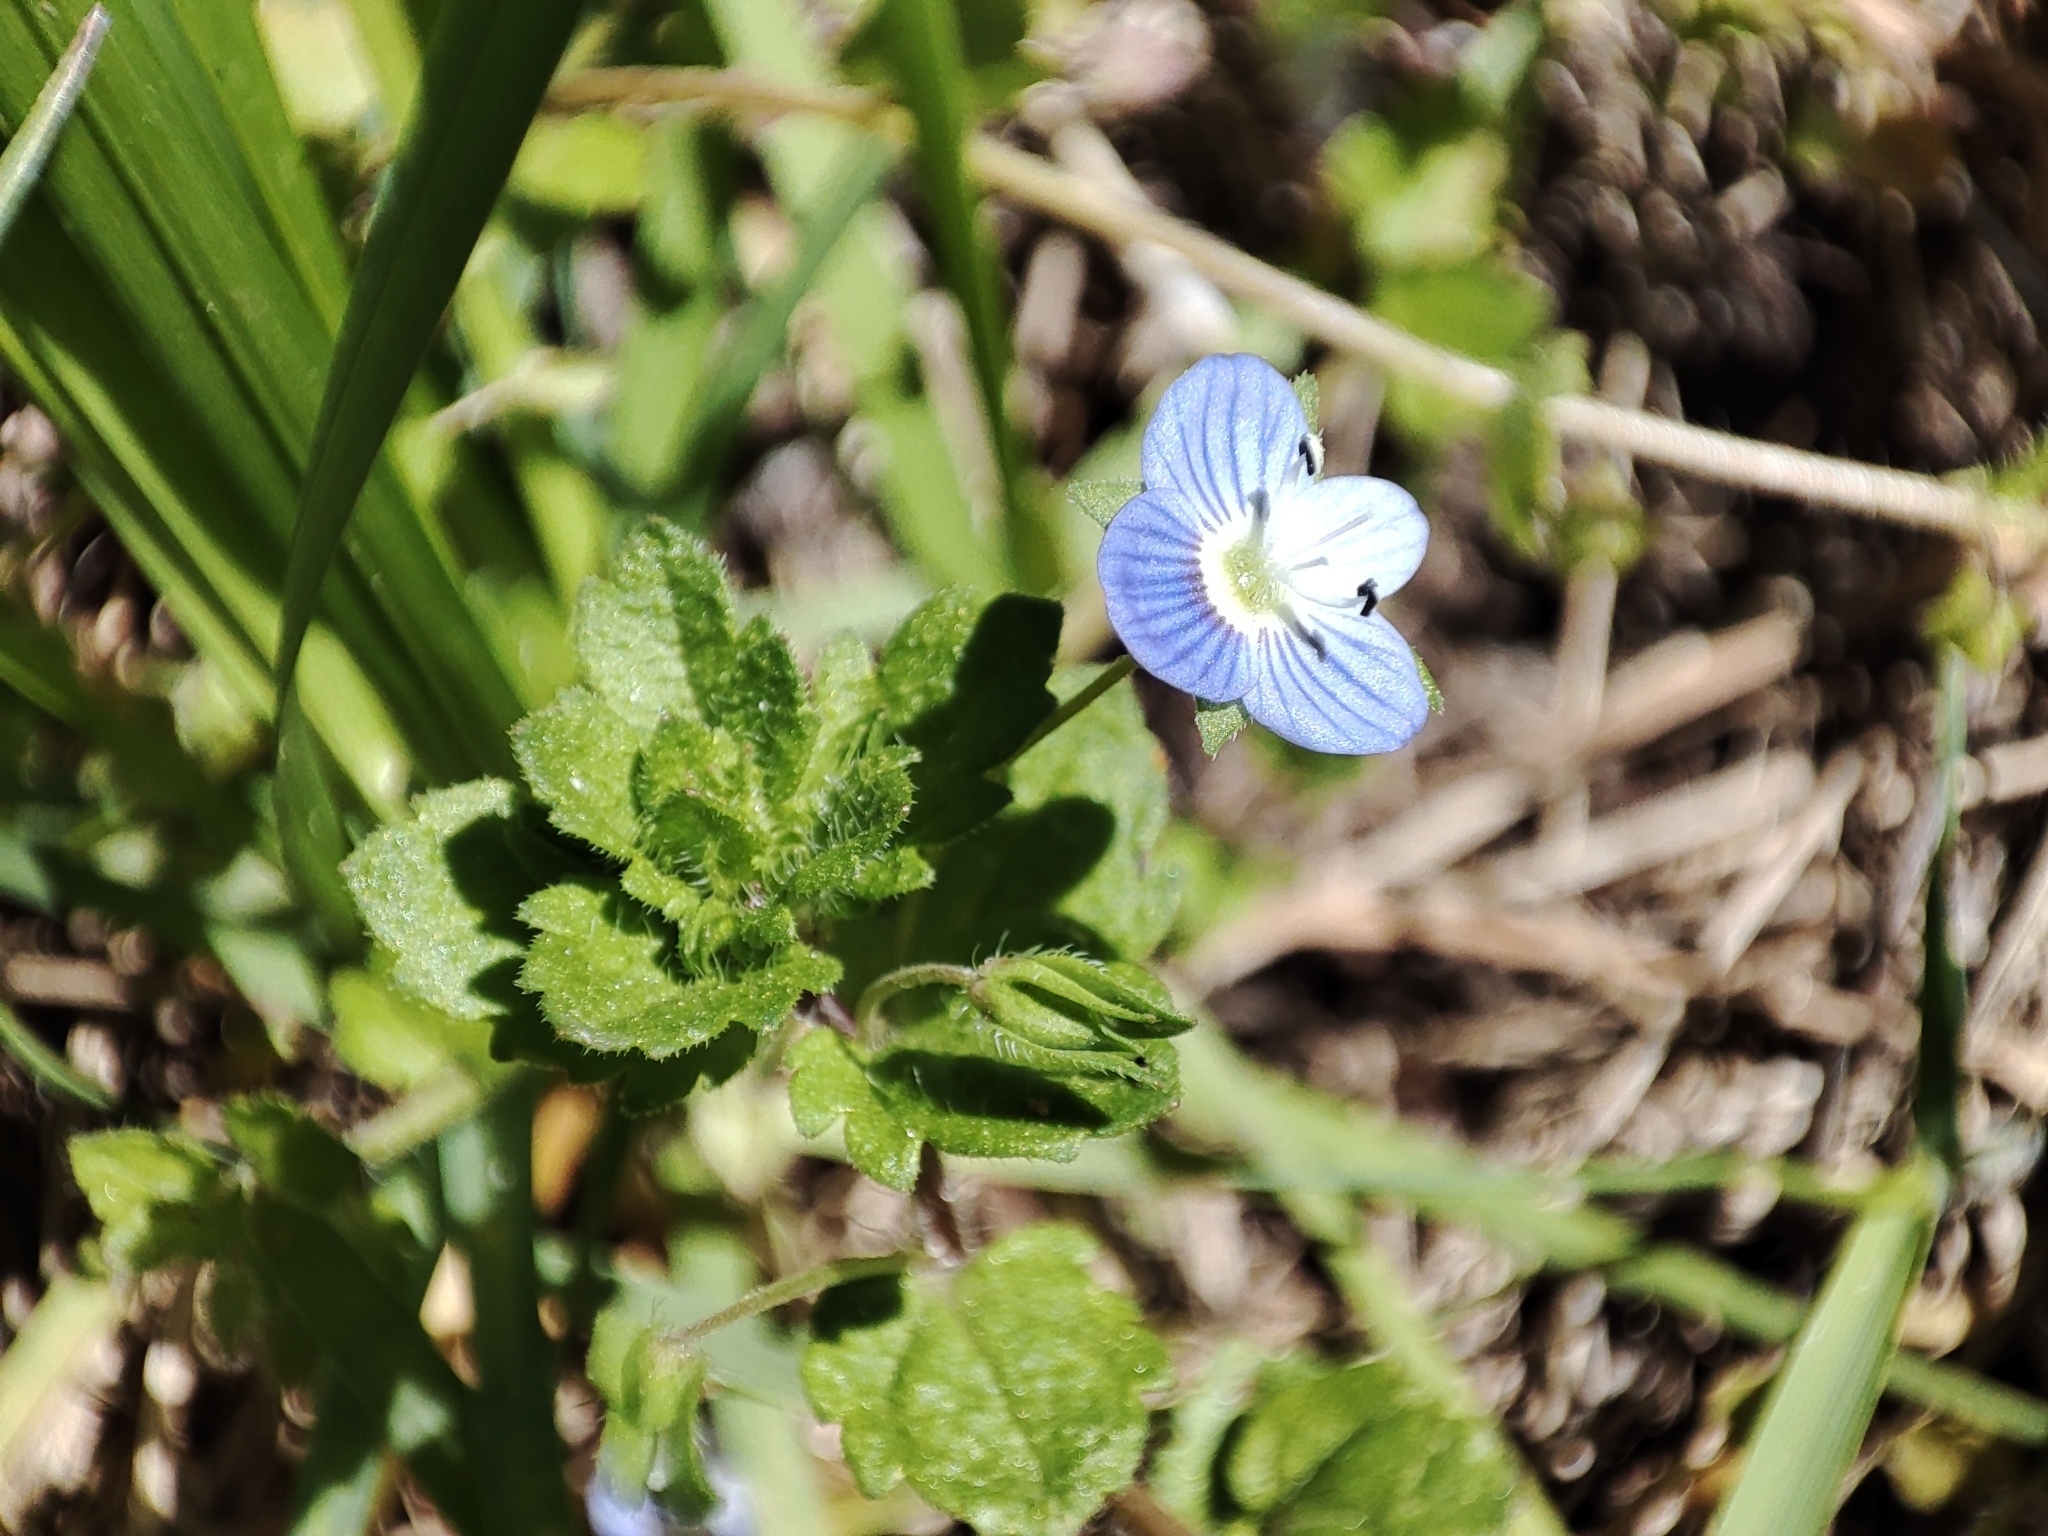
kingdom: Plantae
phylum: Tracheophyta
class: Magnoliopsida
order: Lamiales
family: Plantaginaceae
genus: Veronica
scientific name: Veronica persica
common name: Common field-speedwell
